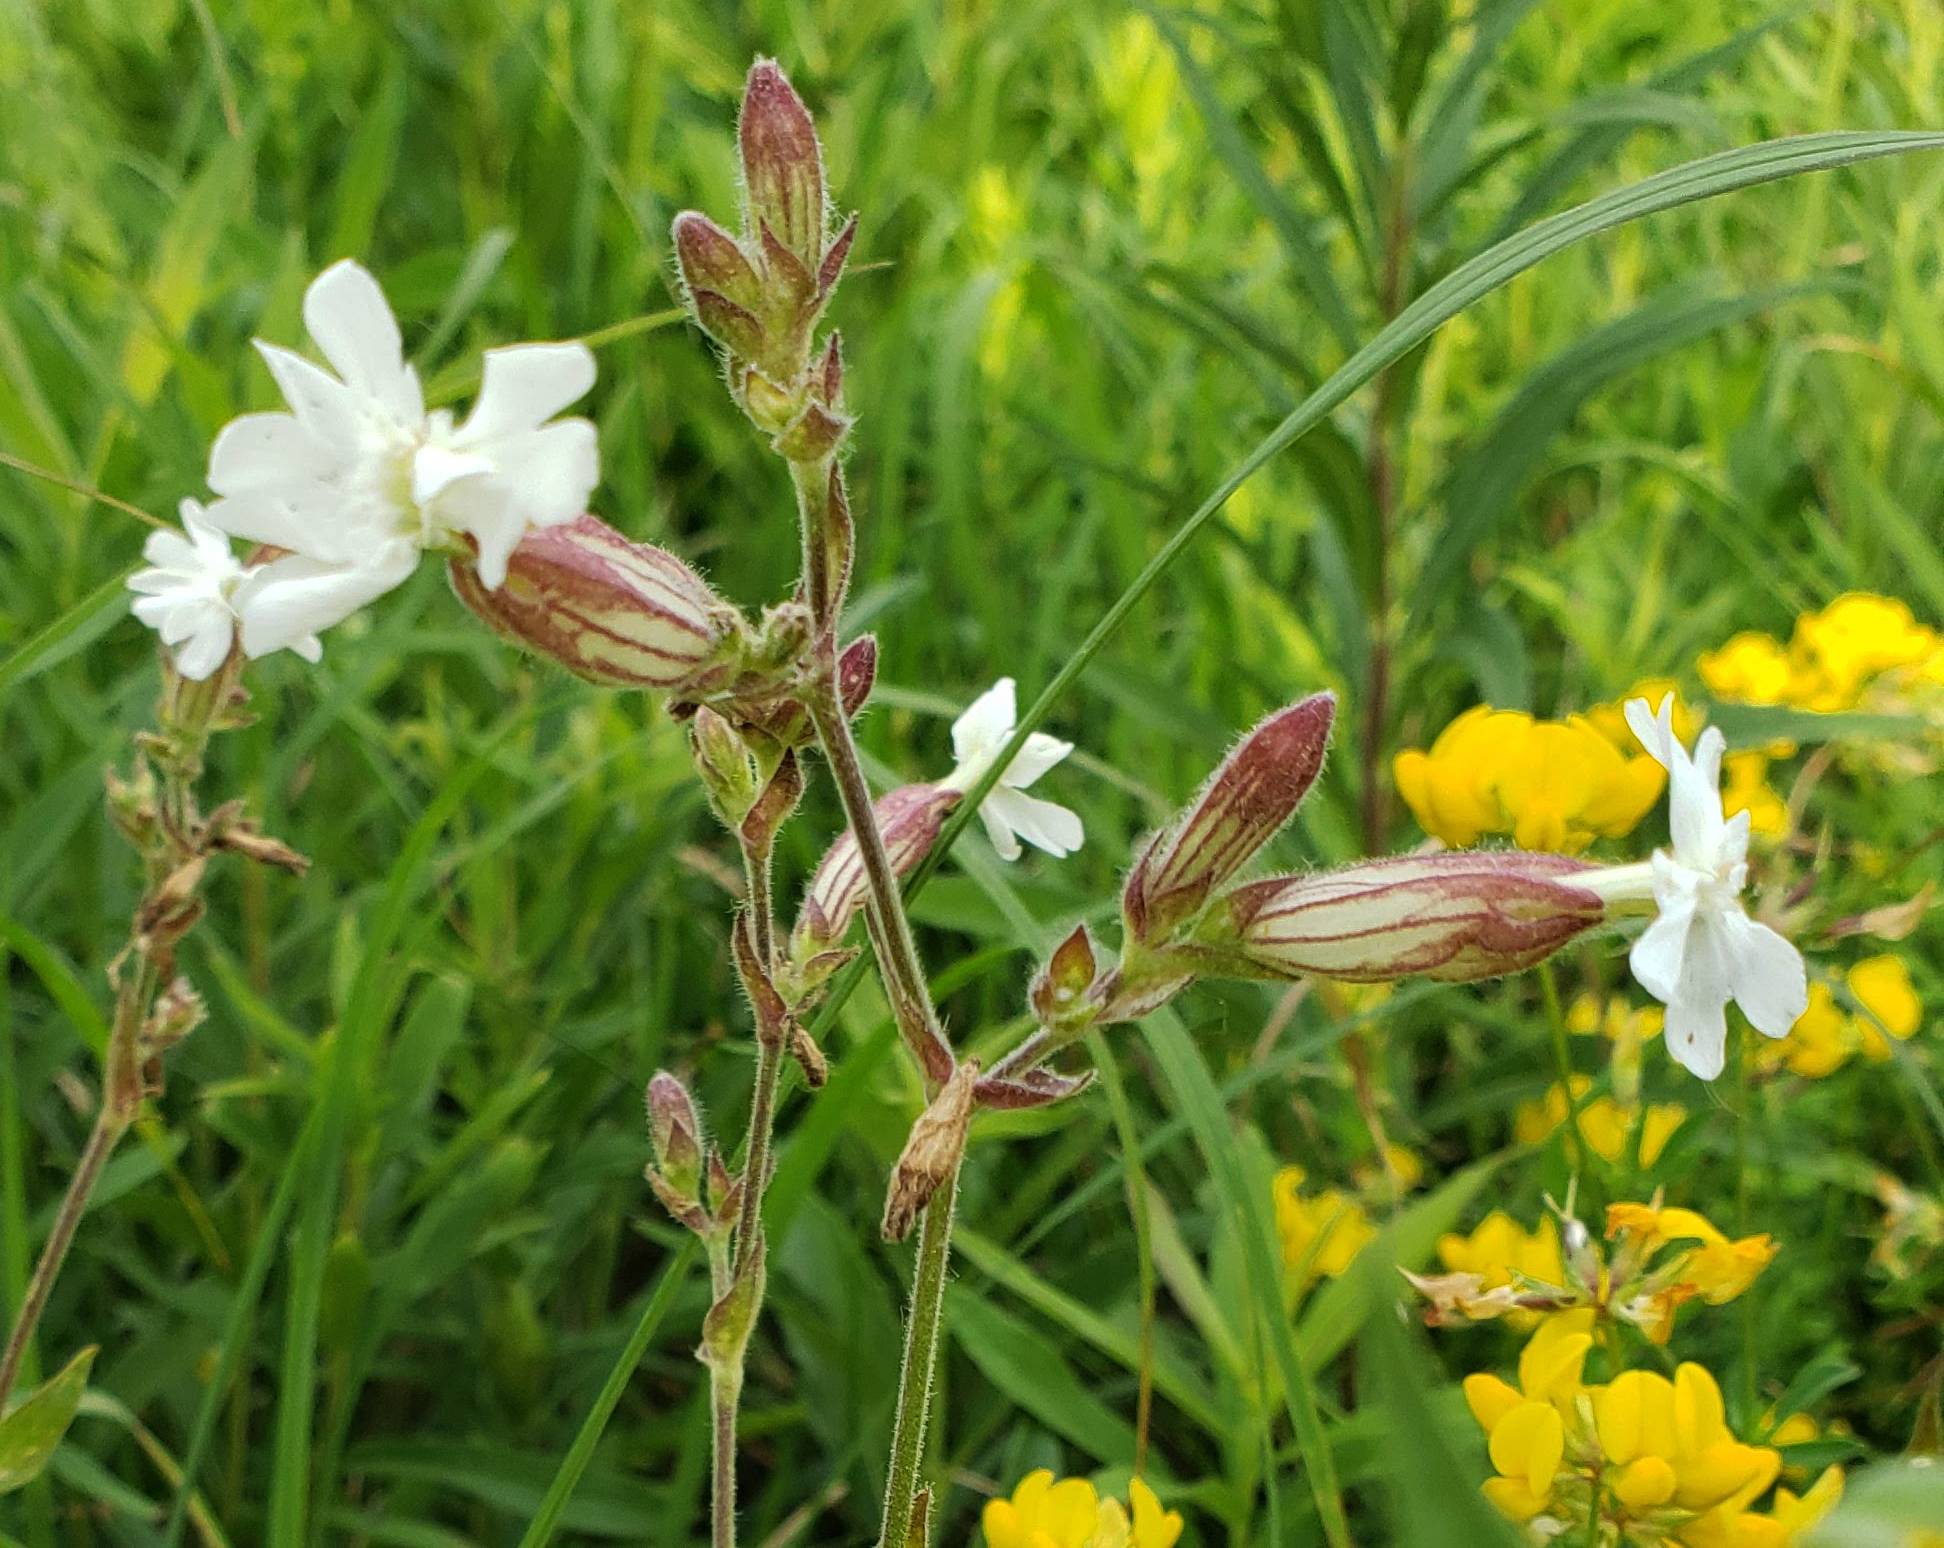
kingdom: Plantae
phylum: Tracheophyta
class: Magnoliopsida
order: Caryophyllales
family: Caryophyllaceae
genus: Silene
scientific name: Silene latifolia
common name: White campion
